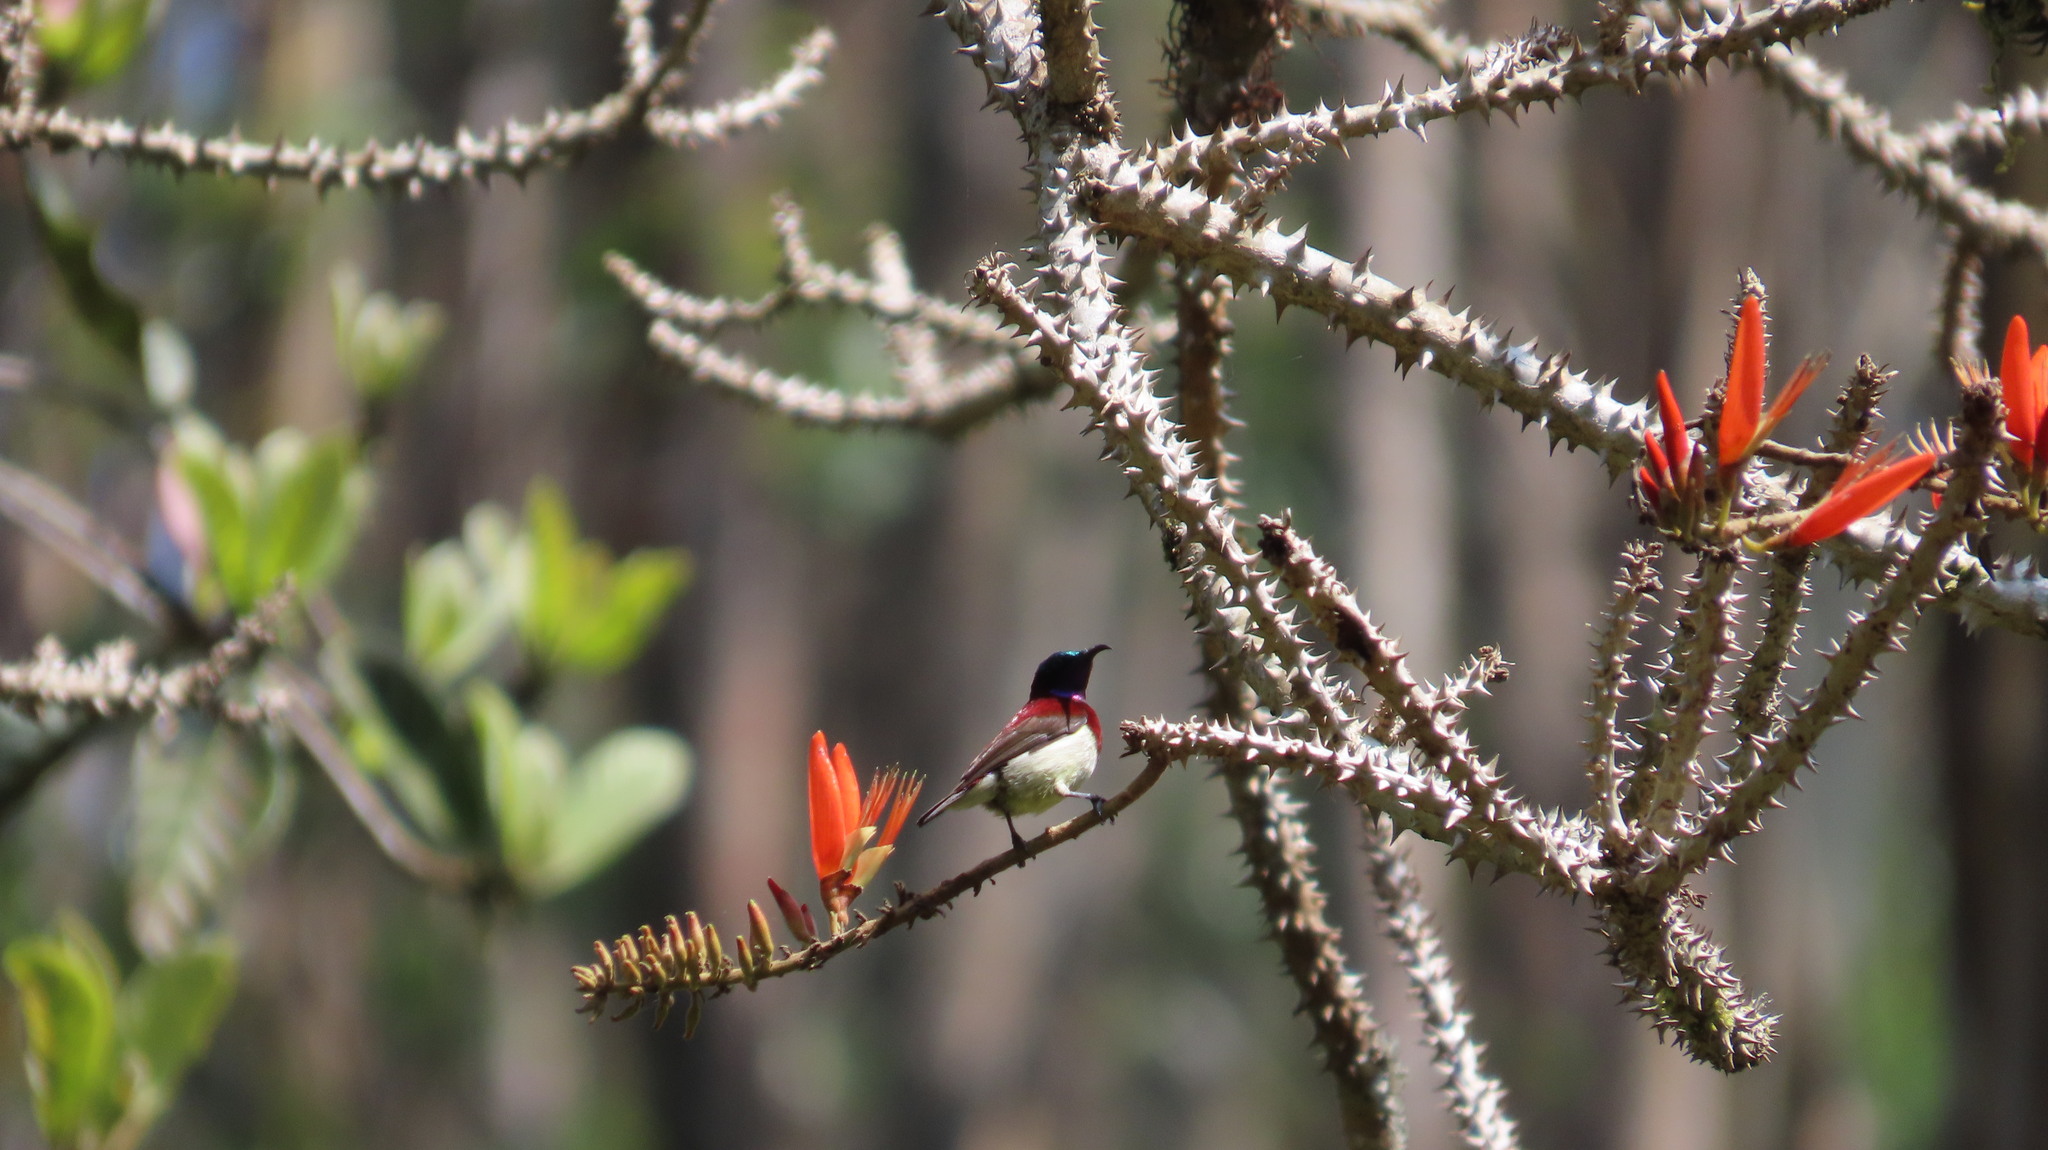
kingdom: Animalia
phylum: Chordata
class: Aves
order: Passeriformes
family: Nectariniidae
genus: Leptocoma
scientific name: Leptocoma minima
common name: Crimson-backed sunbird
